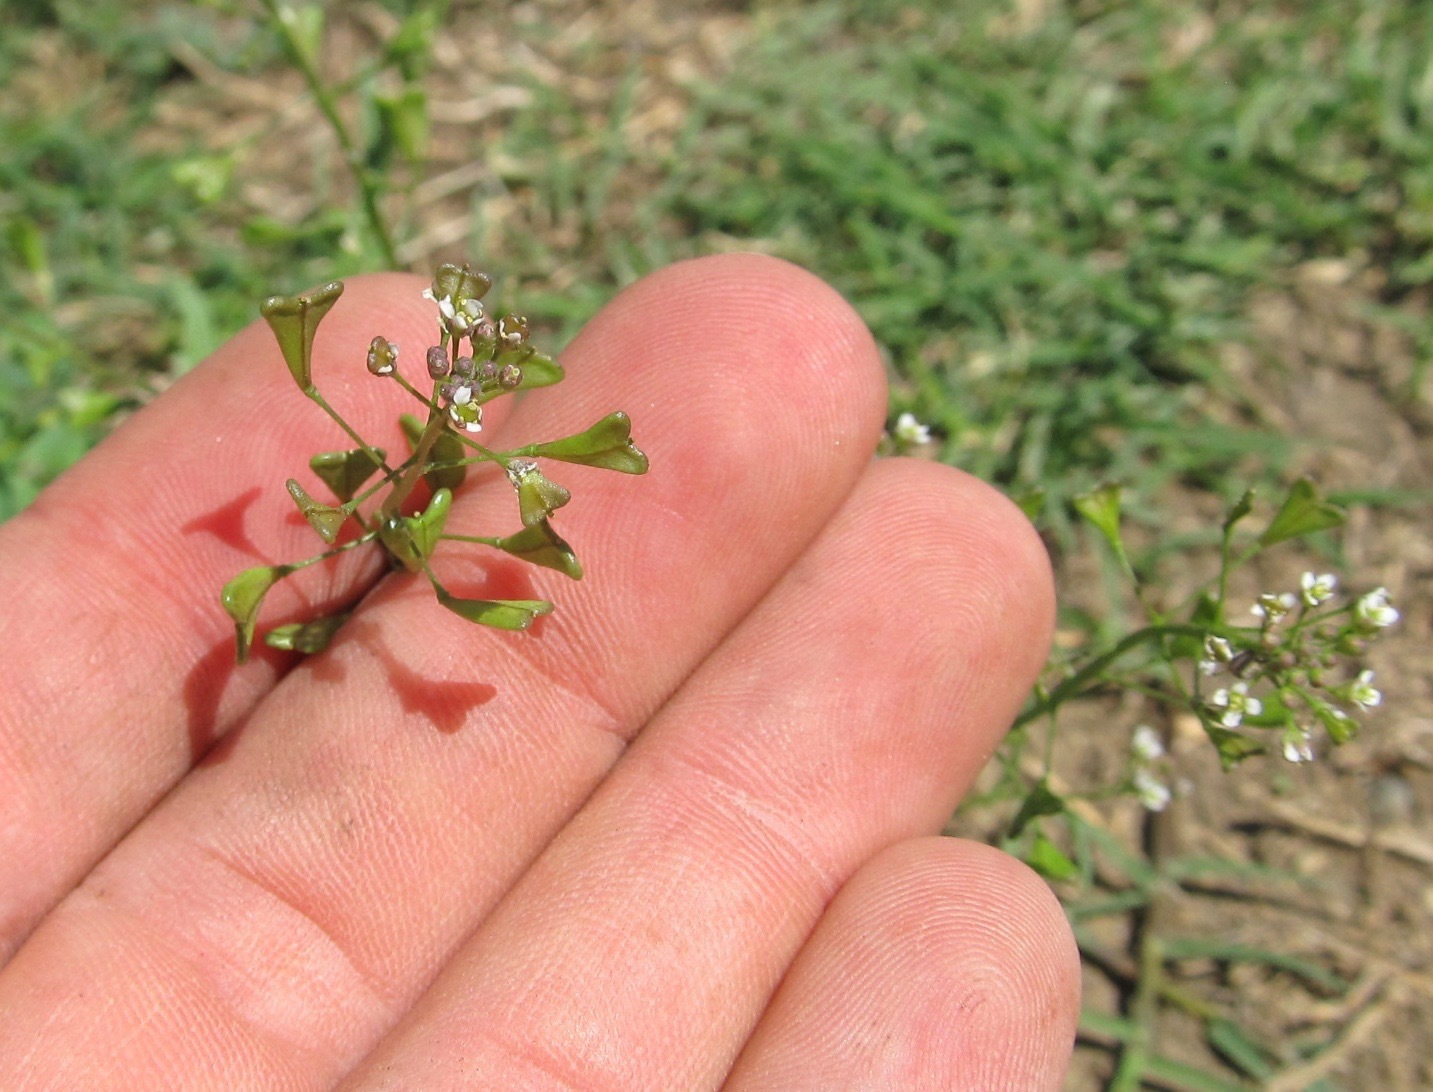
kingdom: Plantae
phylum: Tracheophyta
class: Magnoliopsida
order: Brassicales
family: Brassicaceae
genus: Capsella
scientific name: Capsella bursa-pastoris
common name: Shepherd's purse
